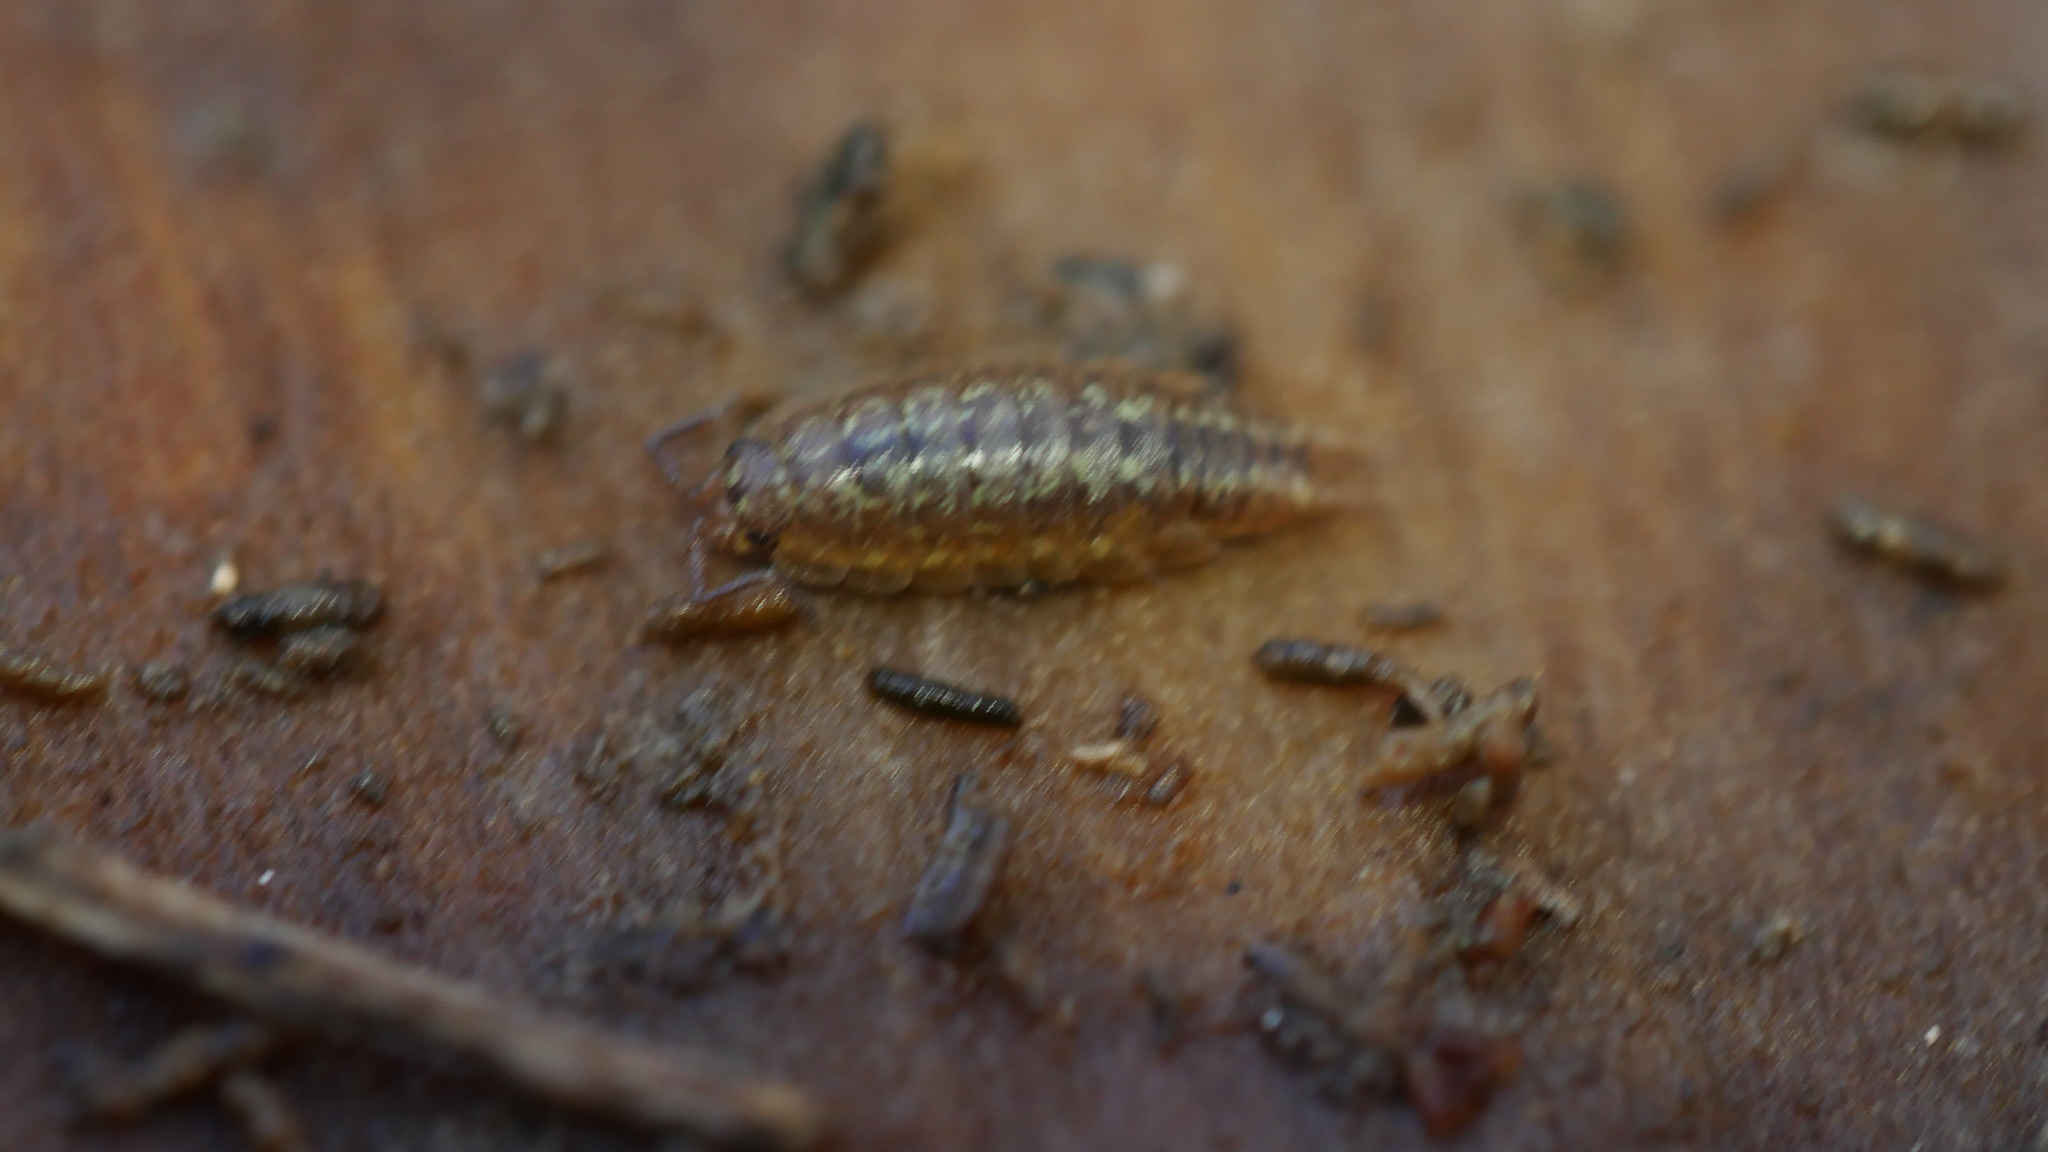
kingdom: Animalia
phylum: Arthropoda
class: Malacostraca
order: Isopoda
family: Halophilosciidae
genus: Littorophiloscia
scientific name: Littorophiloscia vittata
